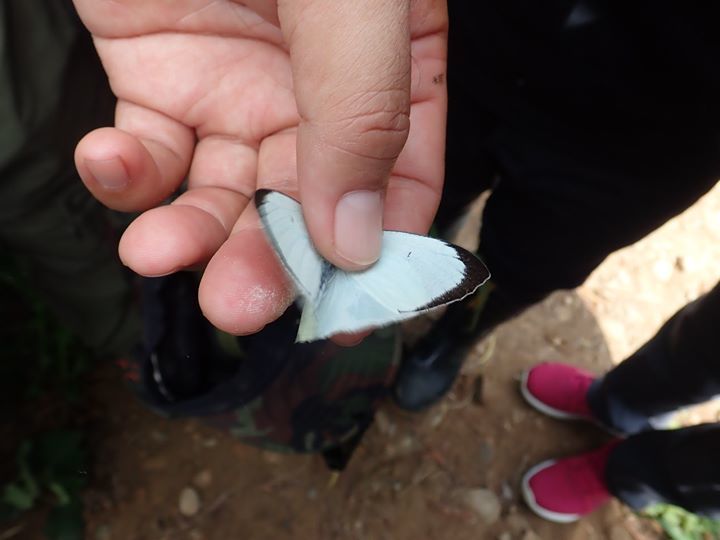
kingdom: Animalia
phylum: Arthropoda
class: Insecta
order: Lepidoptera
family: Pieridae
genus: Catopsilia
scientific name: Catopsilia pyranthe
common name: Mottled emigrant
